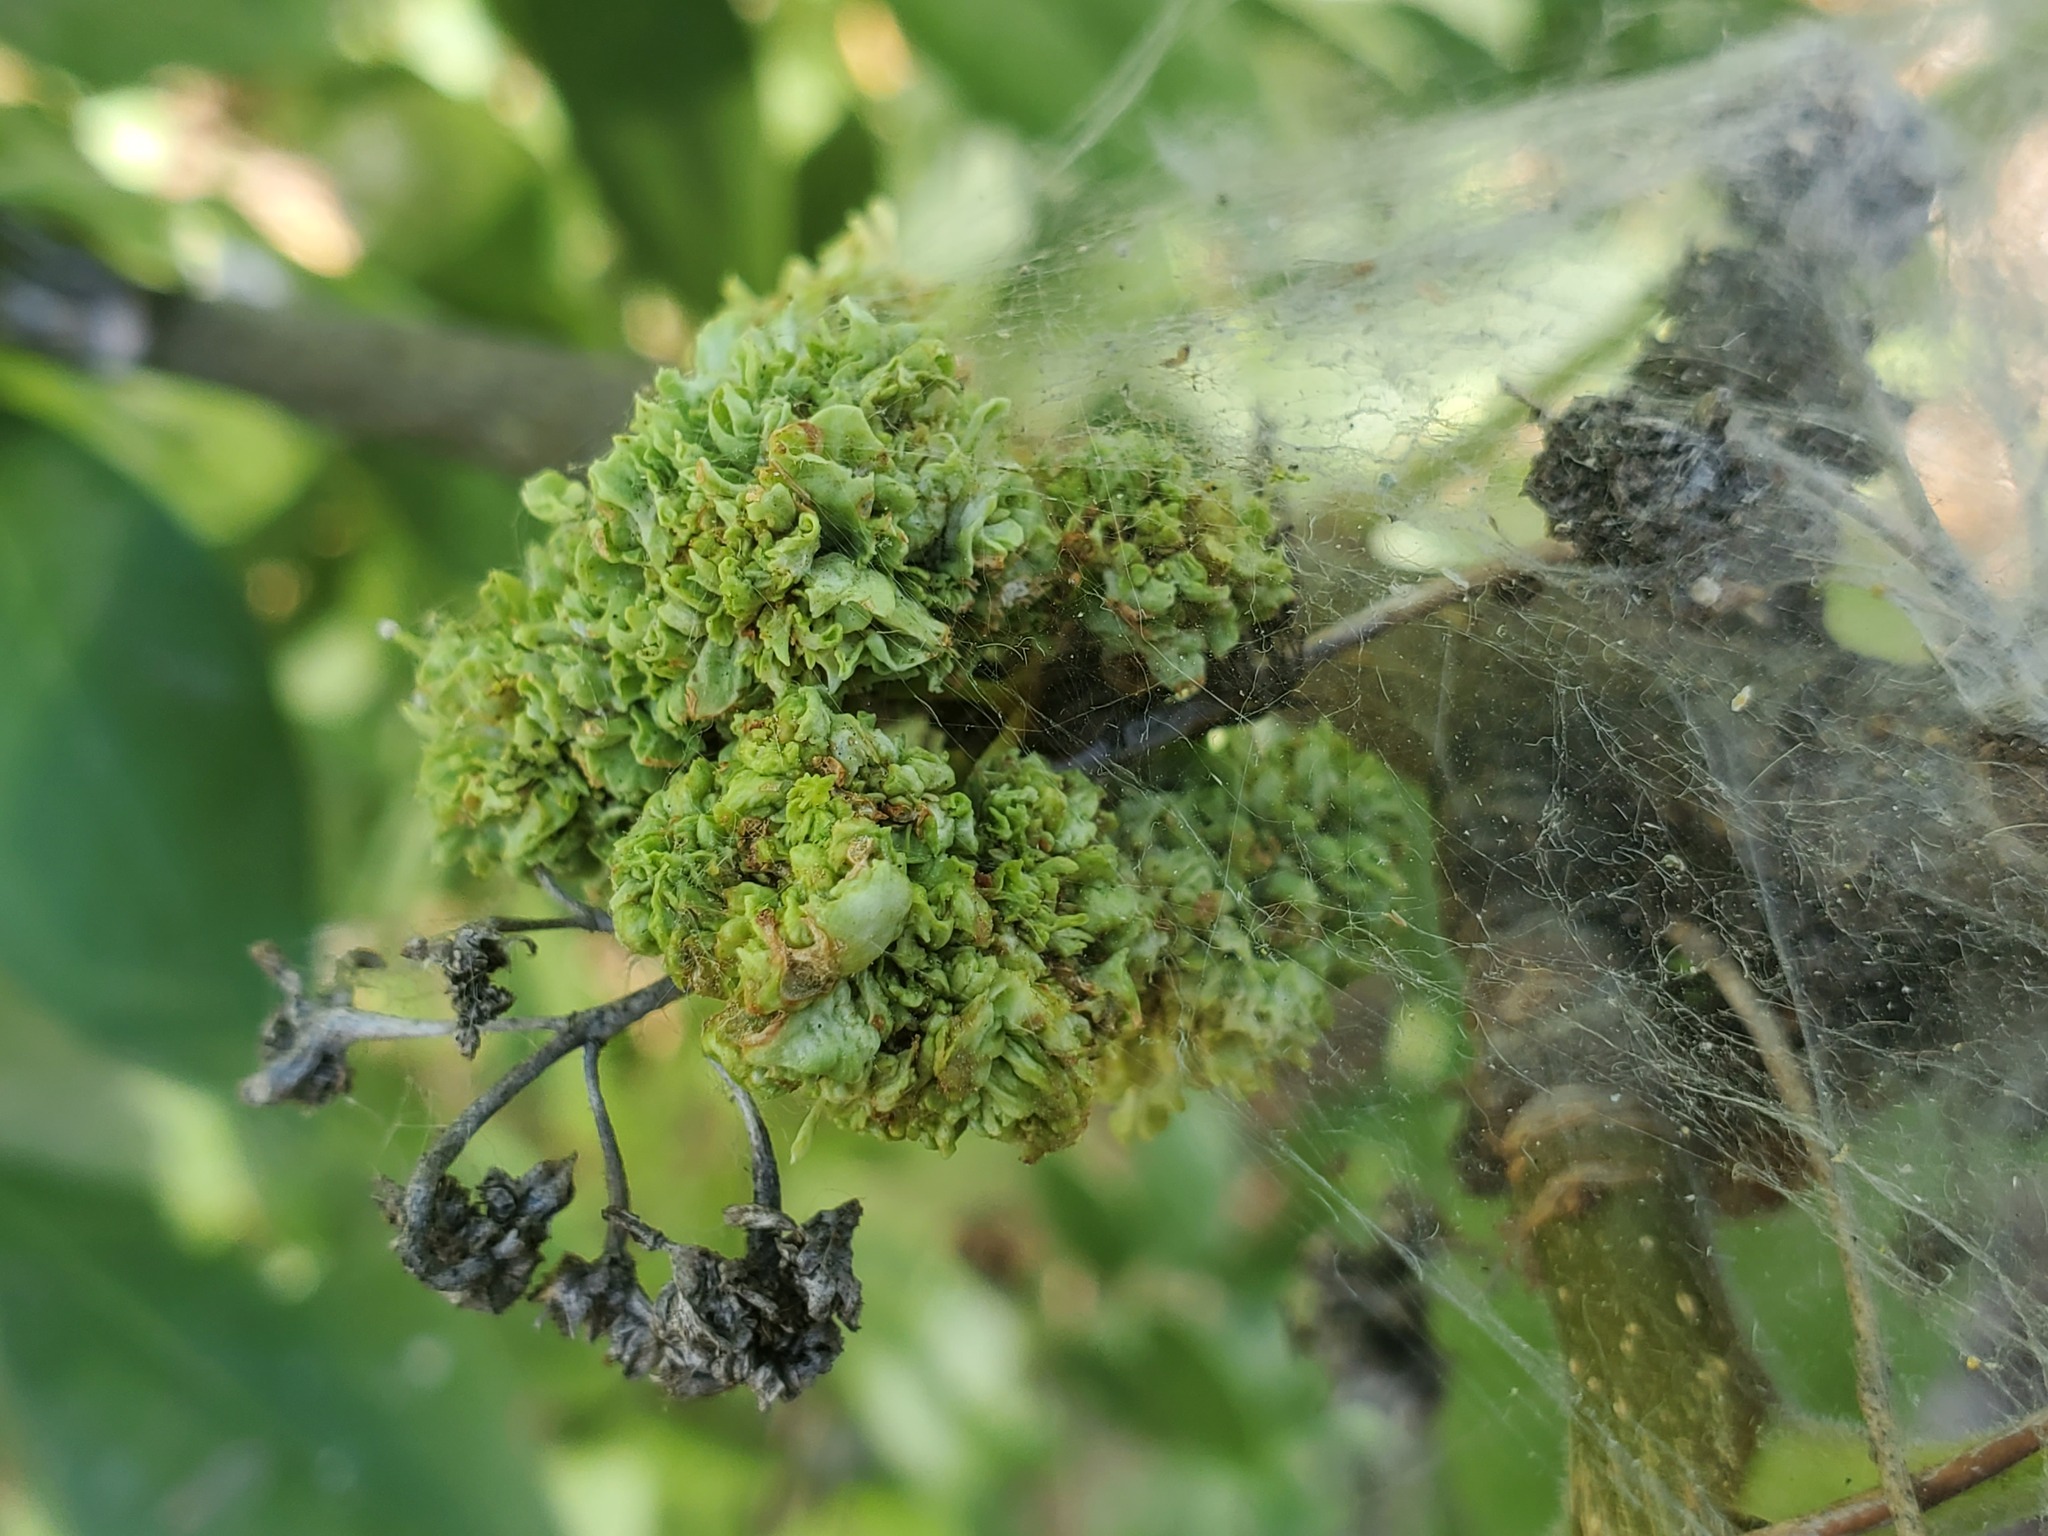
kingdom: Animalia
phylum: Arthropoda
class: Arachnida
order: Trombidiformes
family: Eriophyidae
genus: Aceria
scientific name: Aceria fraxiniflora
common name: Ash flower gall mite
